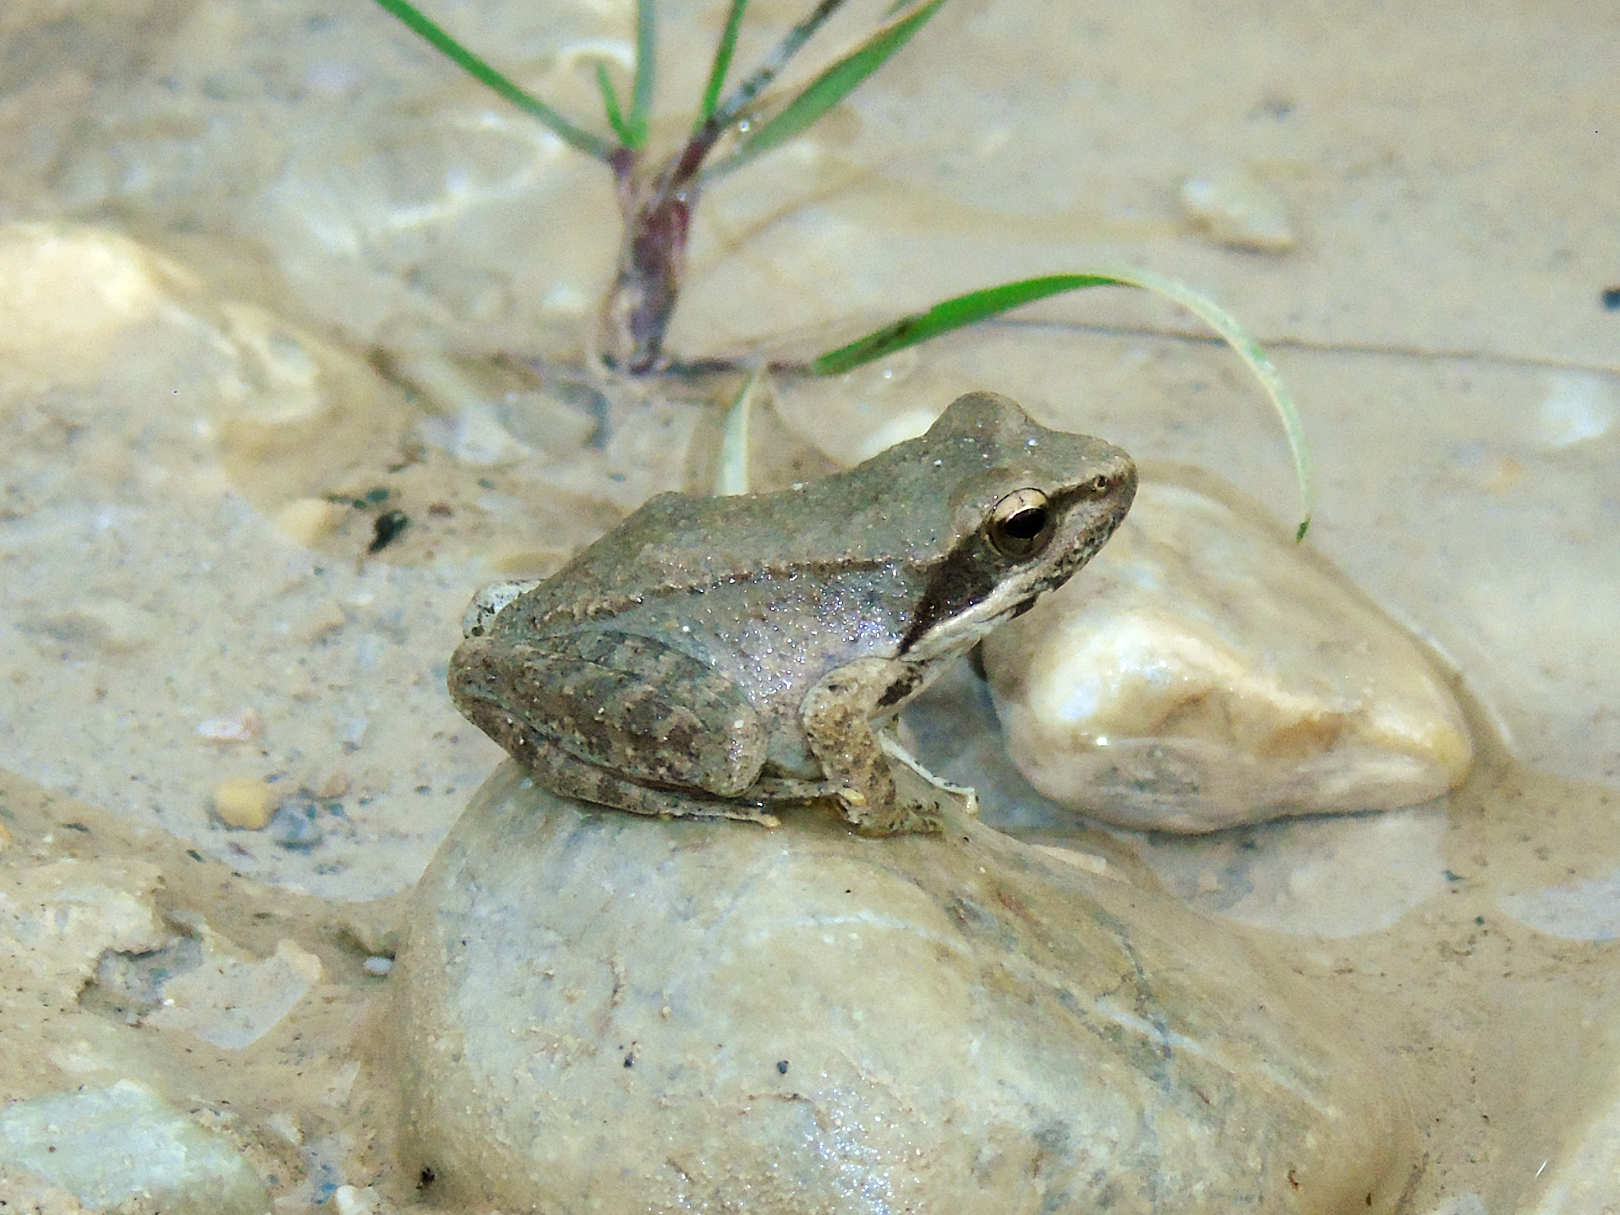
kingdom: Animalia
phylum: Chordata
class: Amphibia
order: Anura
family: Ranidae
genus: Rana
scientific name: Rana graeca
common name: Greek stream frog
